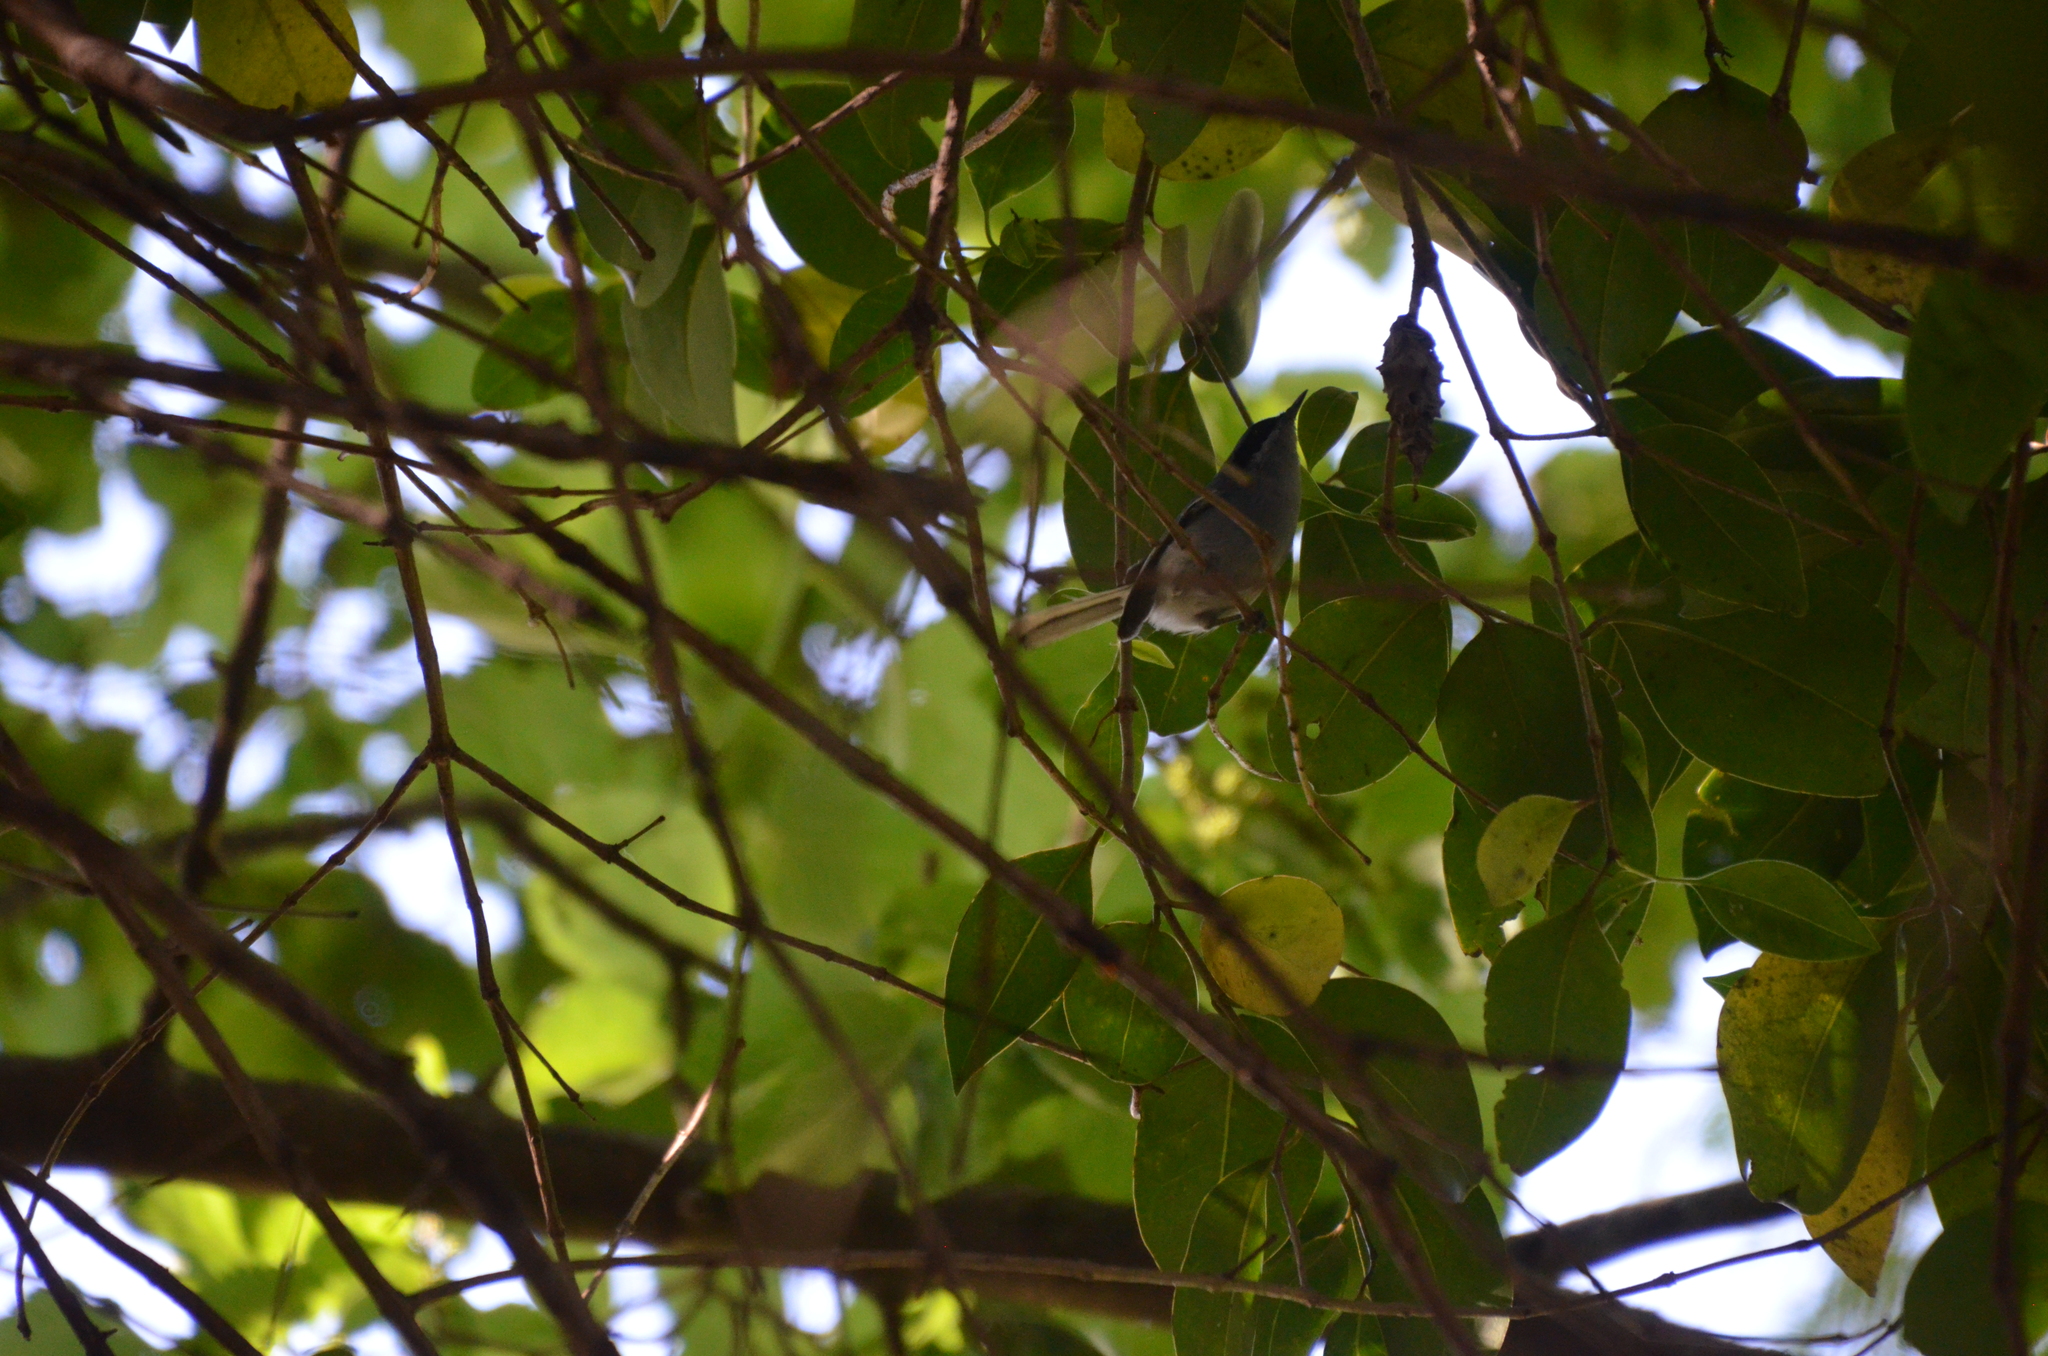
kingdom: Animalia
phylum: Chordata
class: Aves
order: Passeriformes
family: Polioptilidae
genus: Polioptila
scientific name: Polioptila dumicola
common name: Masked gnatcatcher
